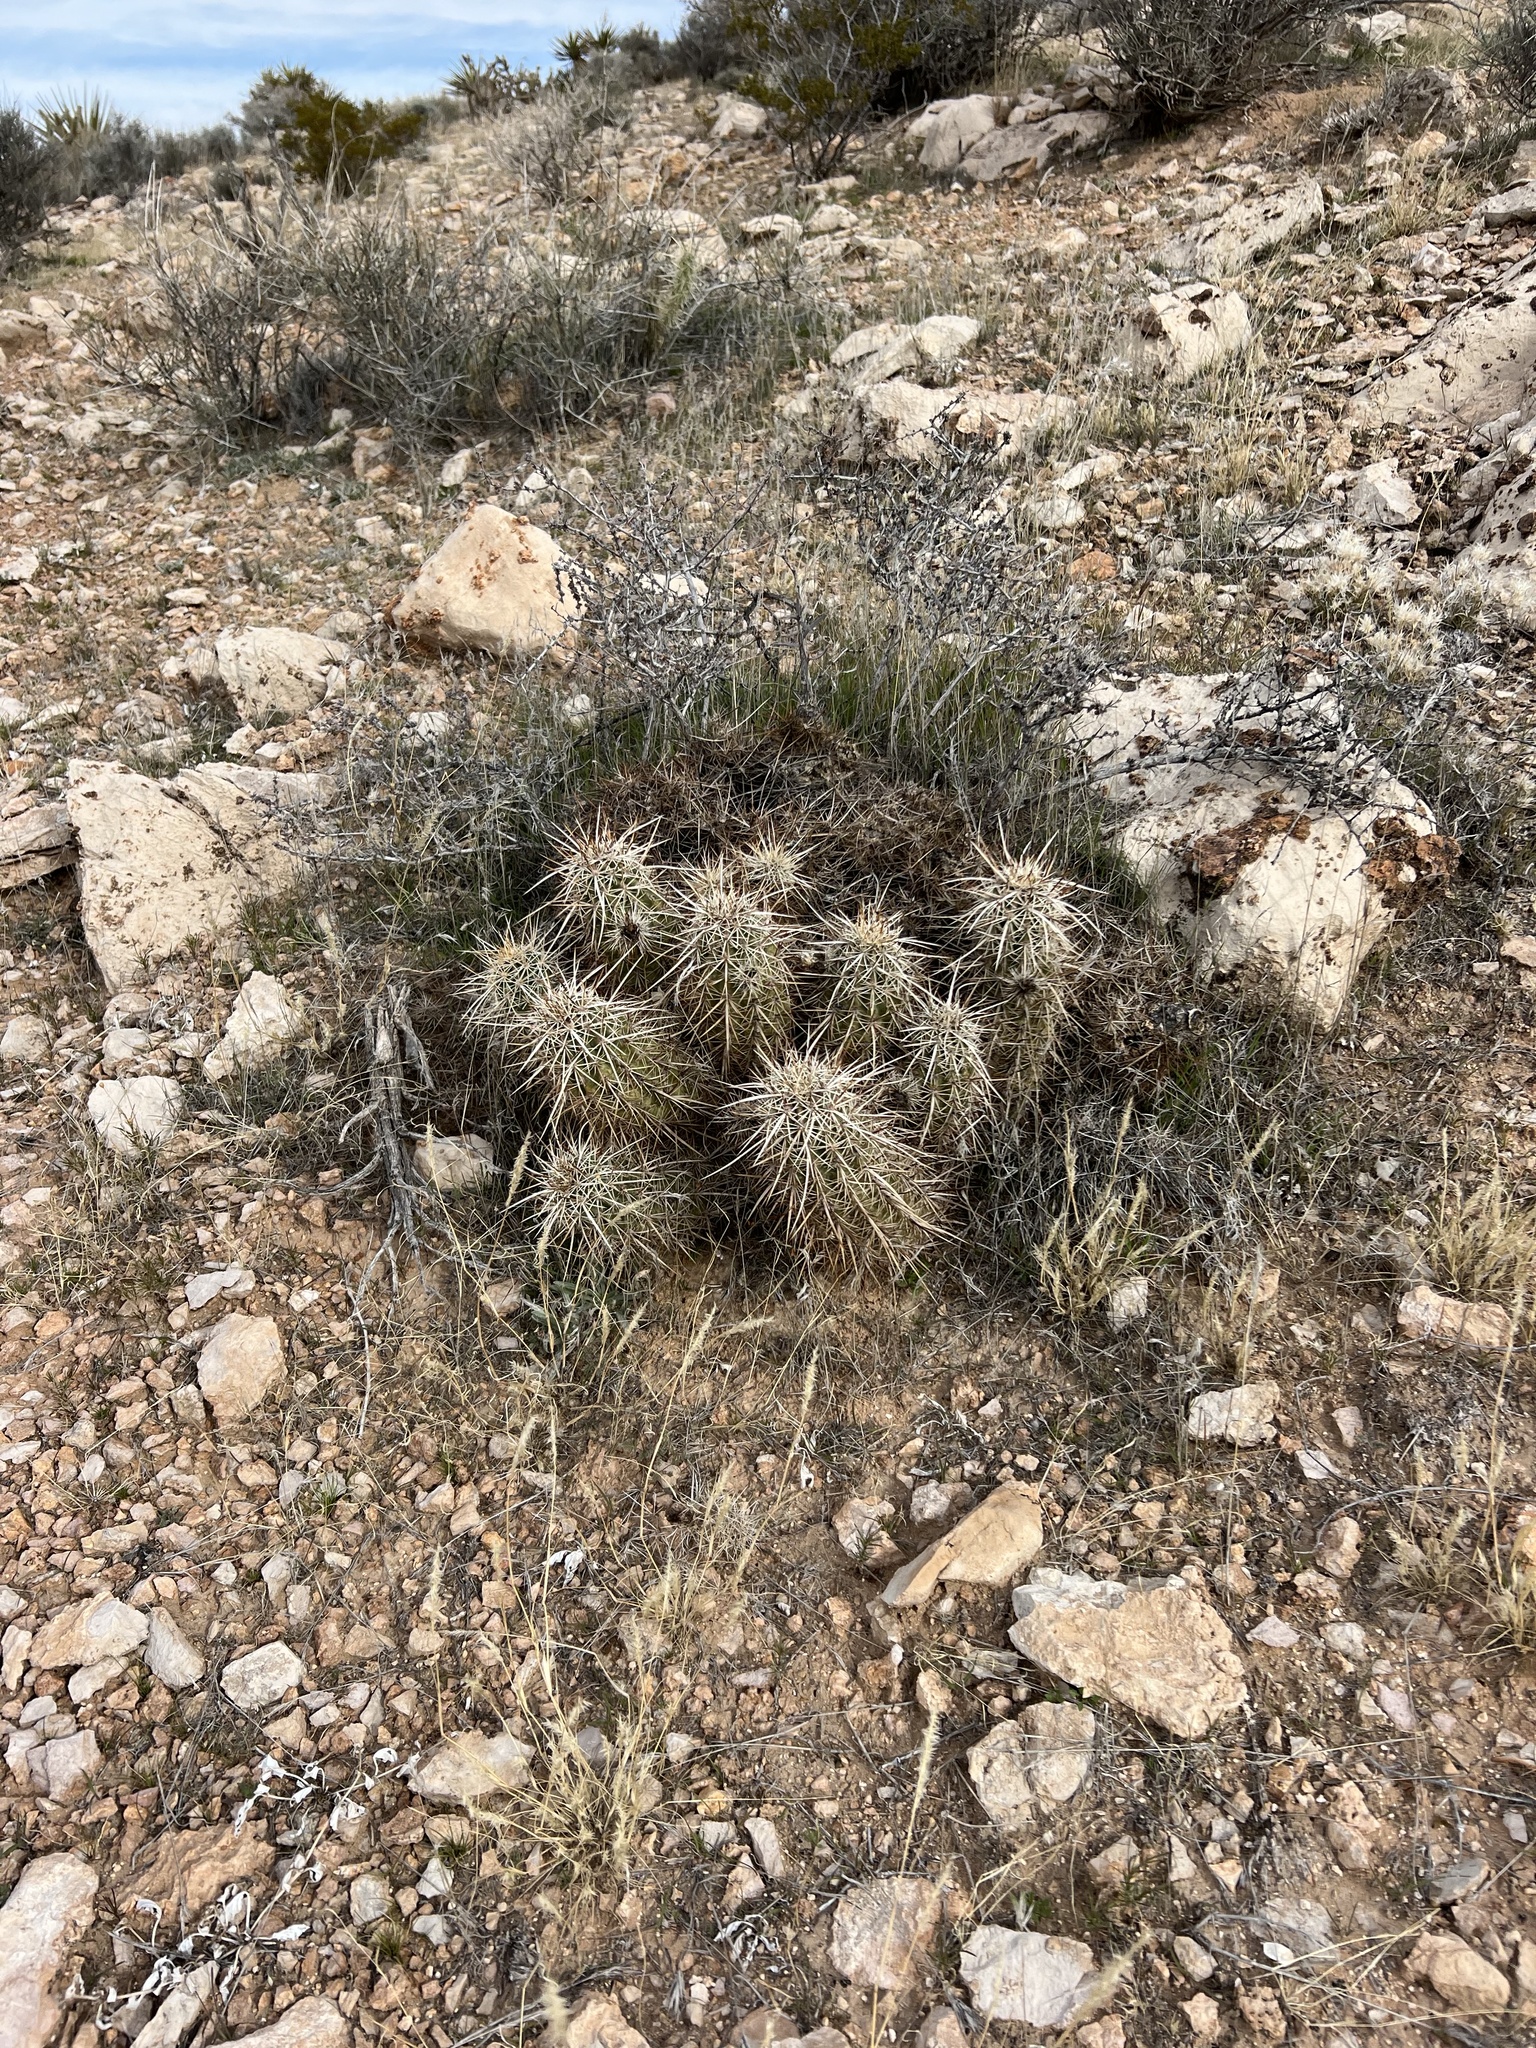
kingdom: Plantae
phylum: Tracheophyta
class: Magnoliopsida
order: Caryophyllales
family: Cactaceae
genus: Echinocereus
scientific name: Echinocereus engelmannii
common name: Engelmann's hedgehog cactus
